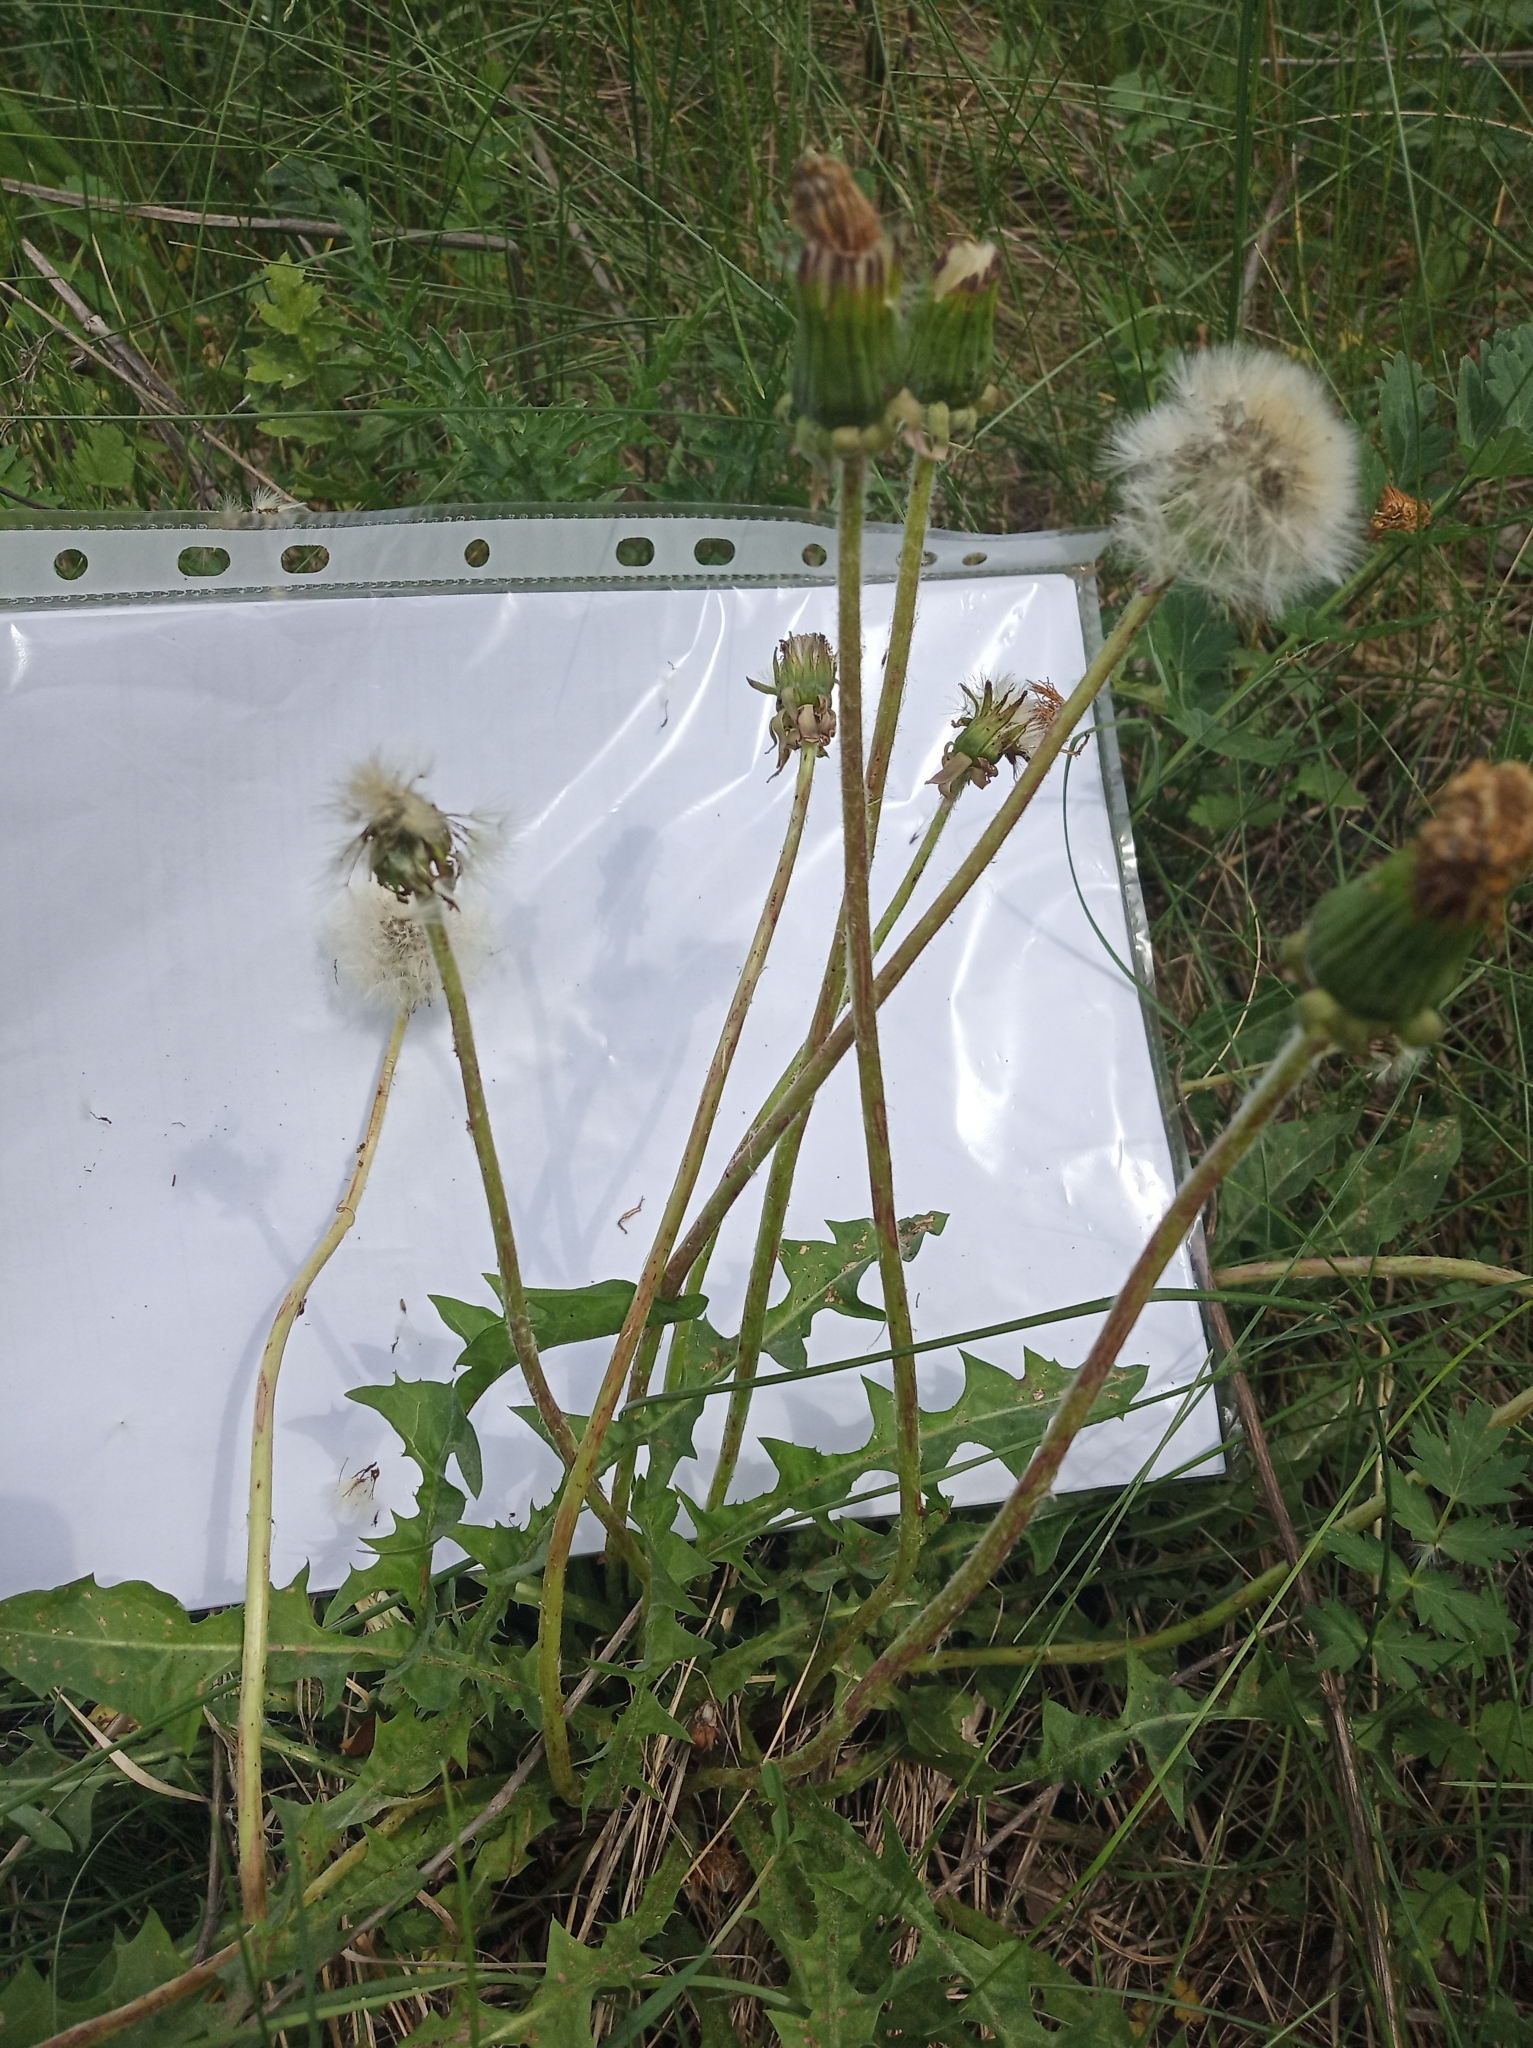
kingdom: Plantae
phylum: Tracheophyta
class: Magnoliopsida
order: Asterales
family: Asteraceae
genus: Taraxacum
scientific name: Taraxacum officinale
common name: Common dandelion
